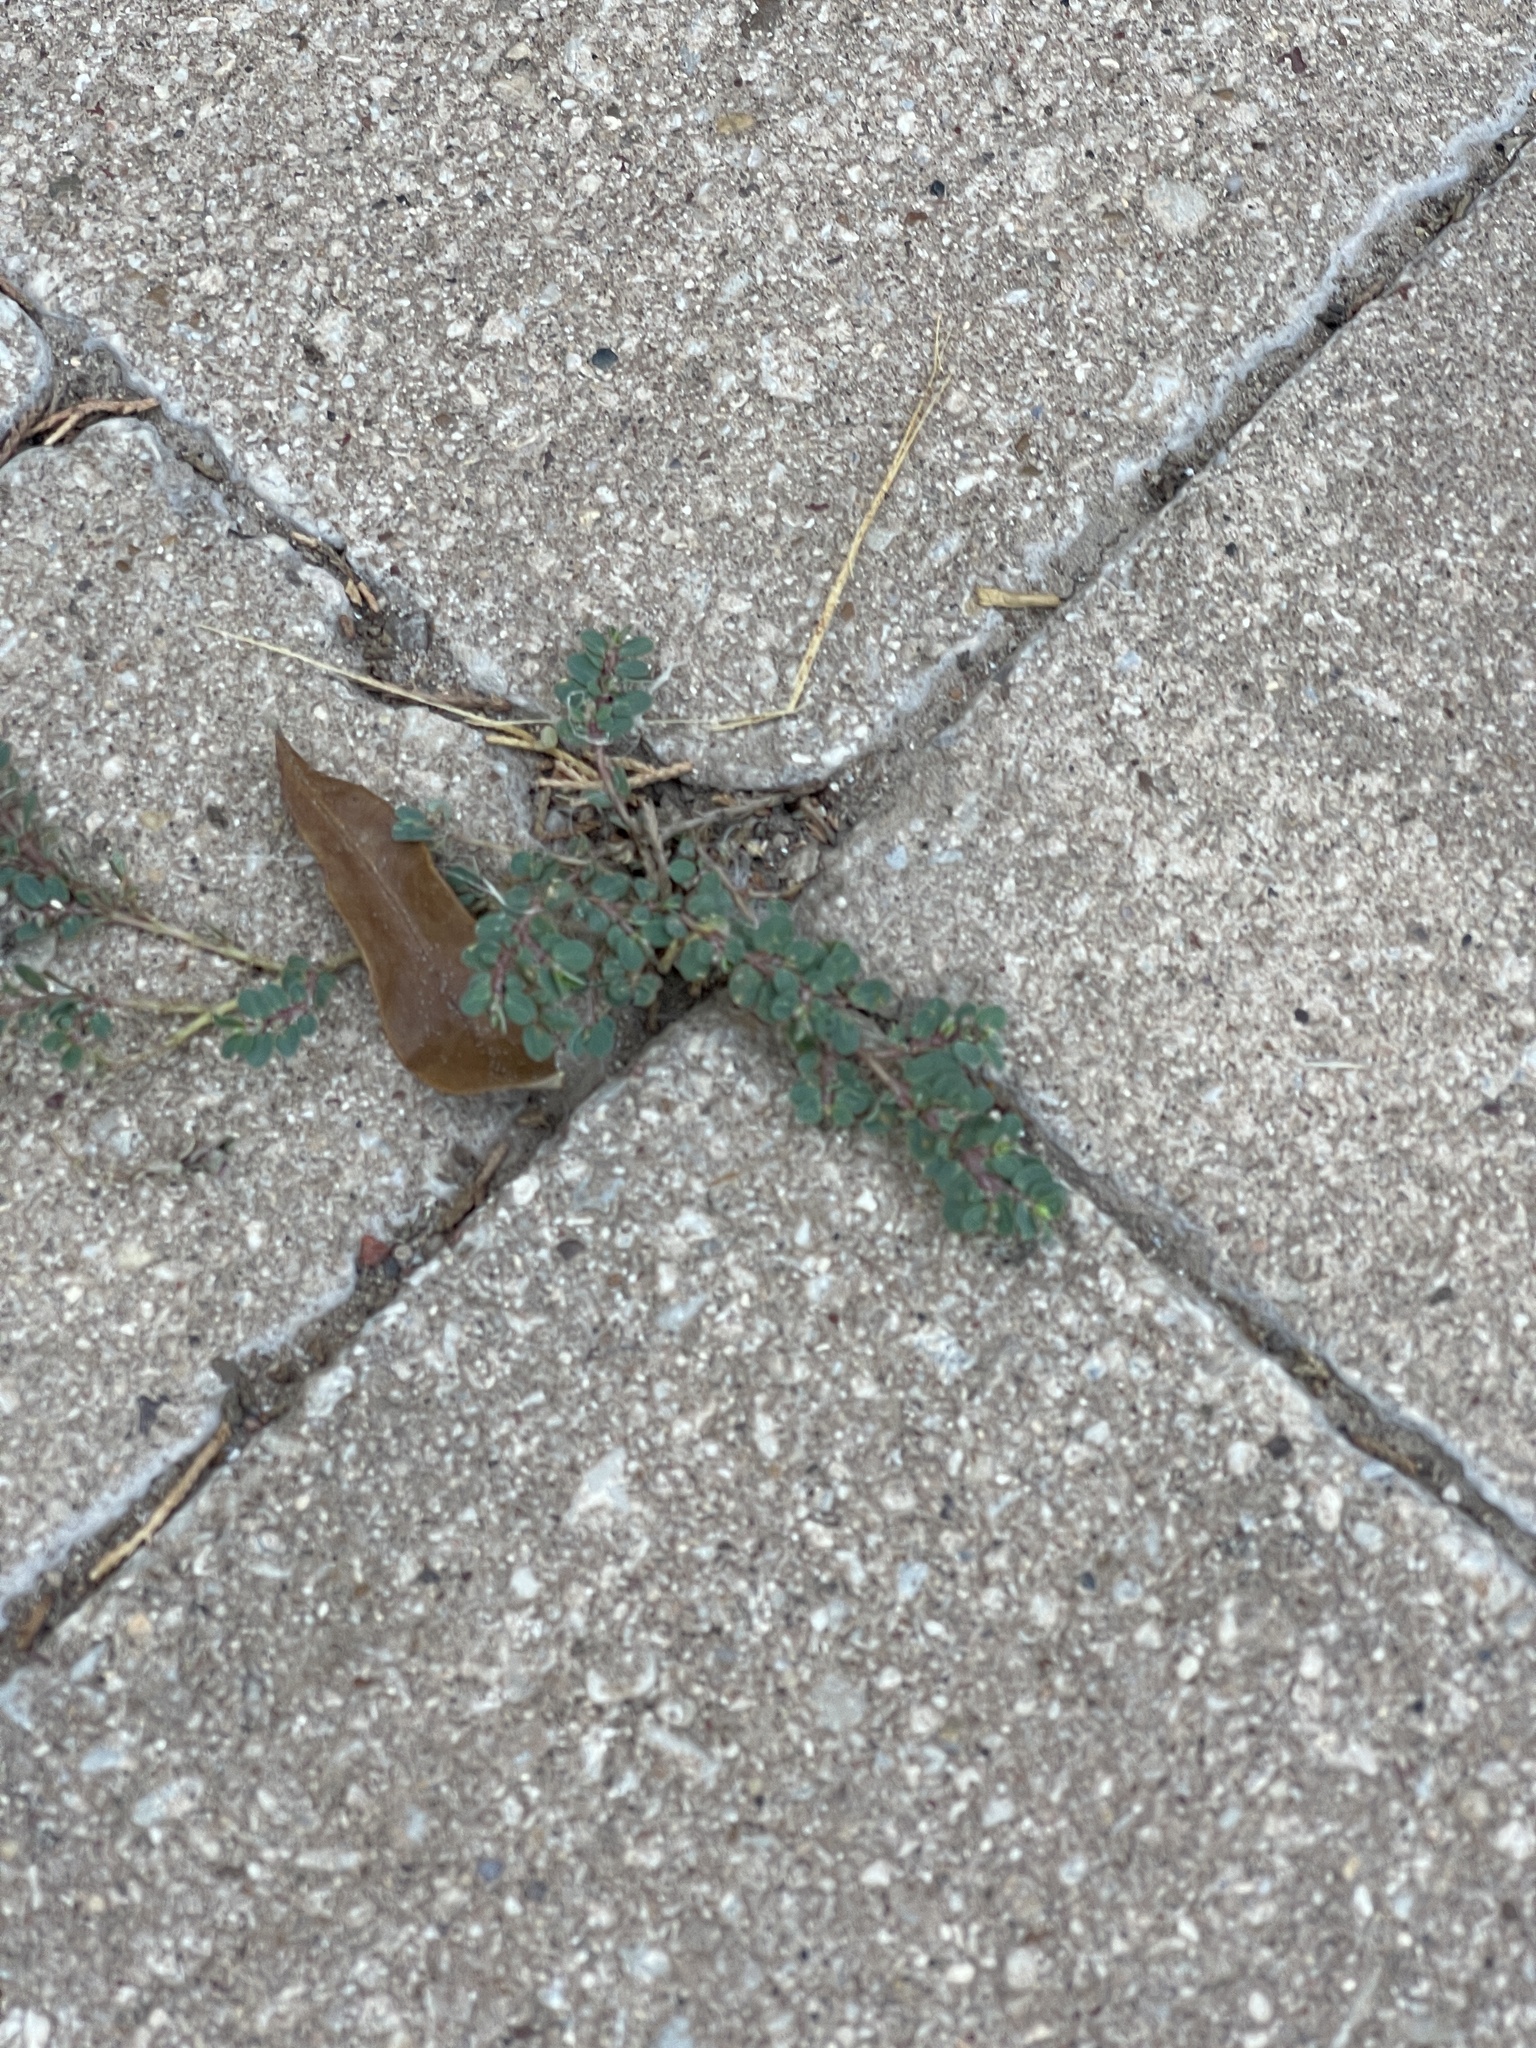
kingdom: Plantae
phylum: Tracheophyta
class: Magnoliopsida
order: Malpighiales
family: Euphorbiaceae
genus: Euphorbia
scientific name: Euphorbia prostrata
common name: Prostrate sandmat
